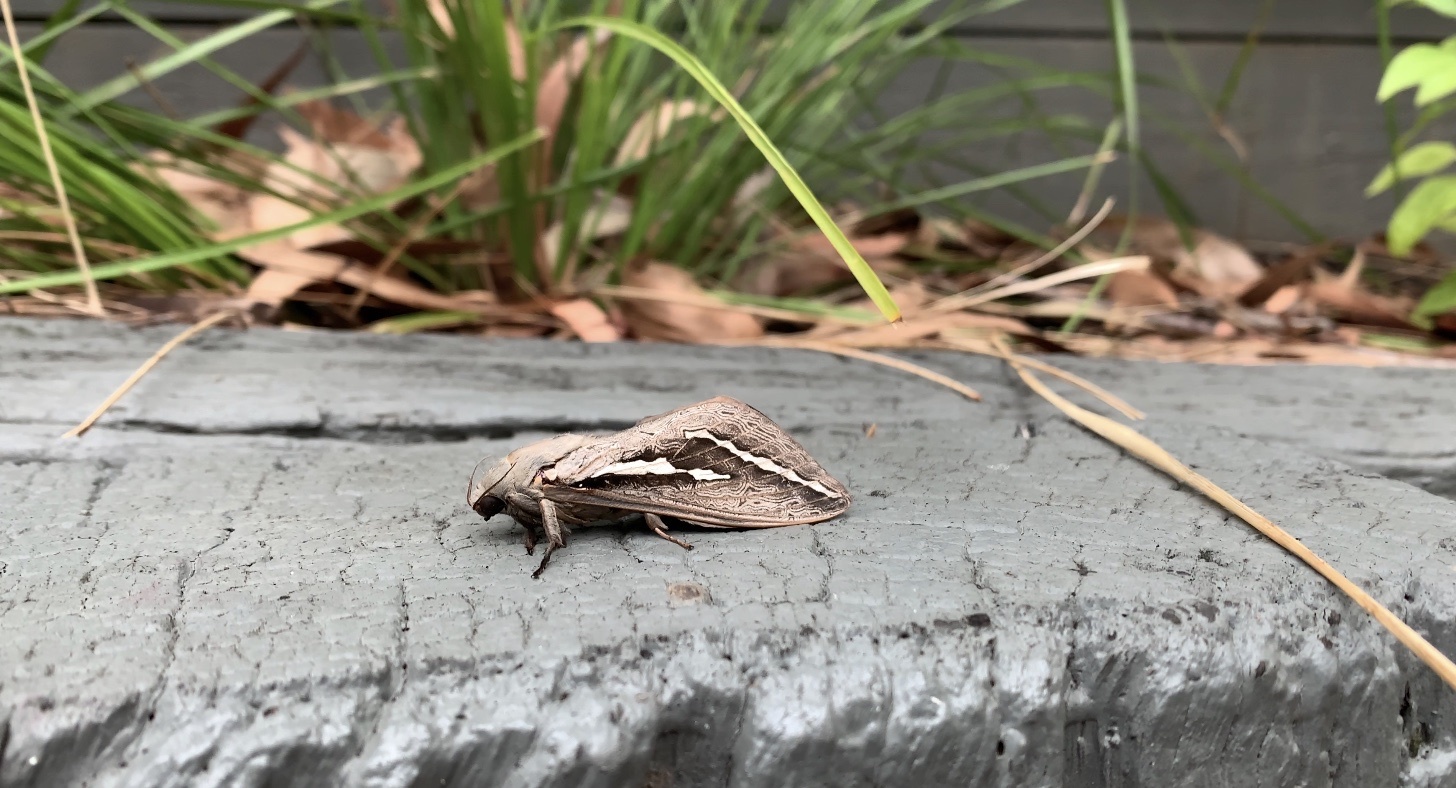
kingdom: Animalia
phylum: Arthropoda
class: Insecta
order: Lepidoptera
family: Hepialidae
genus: Abantiades
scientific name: Abantiades labyrinthicus
